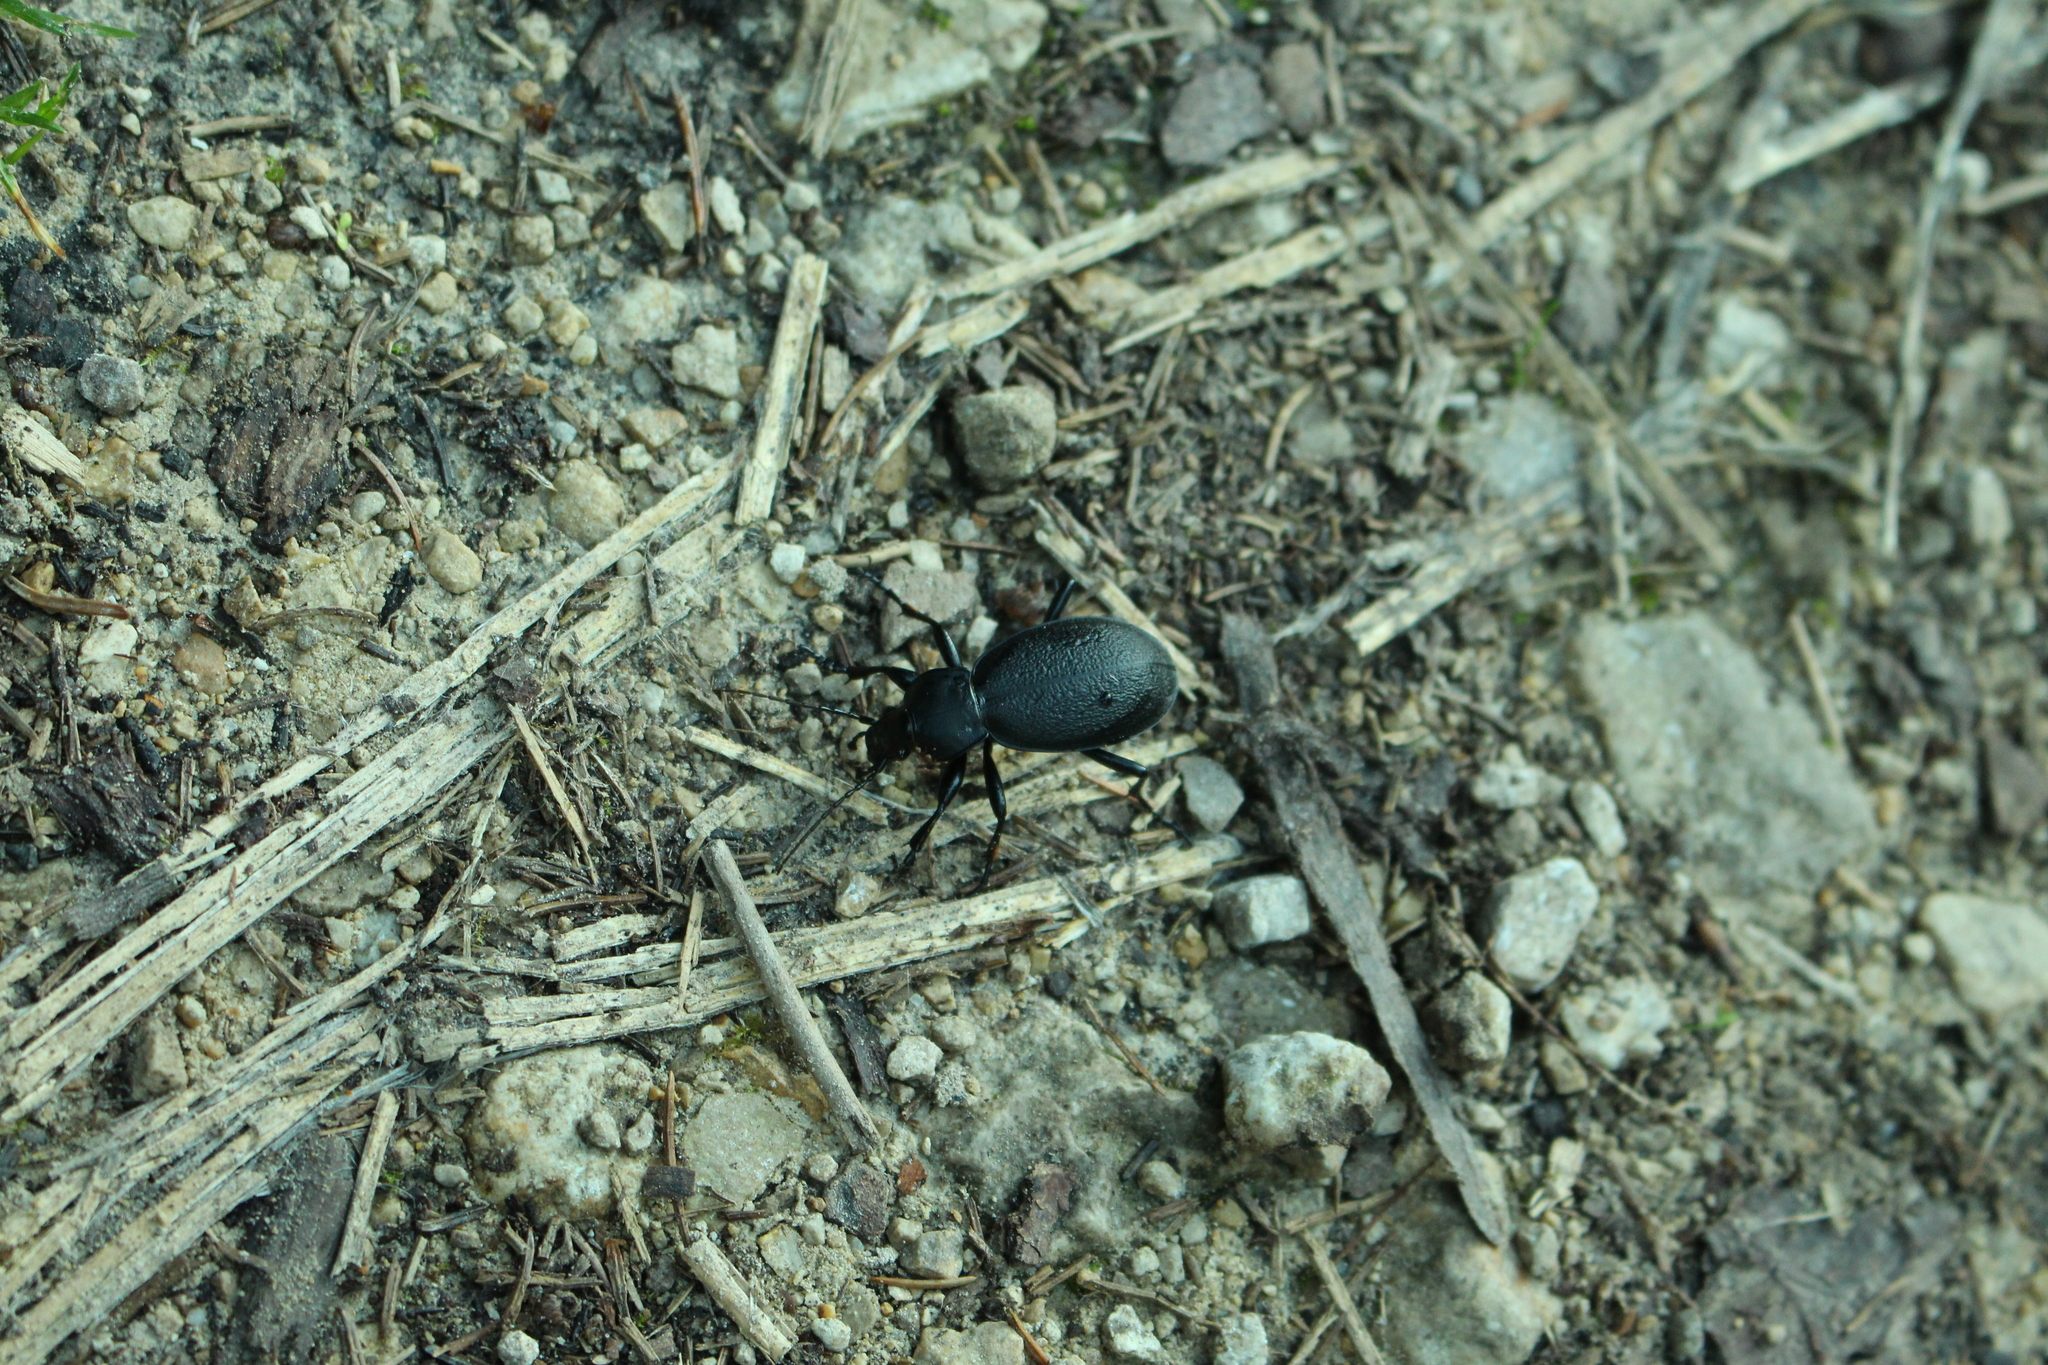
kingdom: Animalia
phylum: Arthropoda
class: Insecta
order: Coleoptera
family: Carabidae
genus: Carabus
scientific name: Carabus coriaceus
